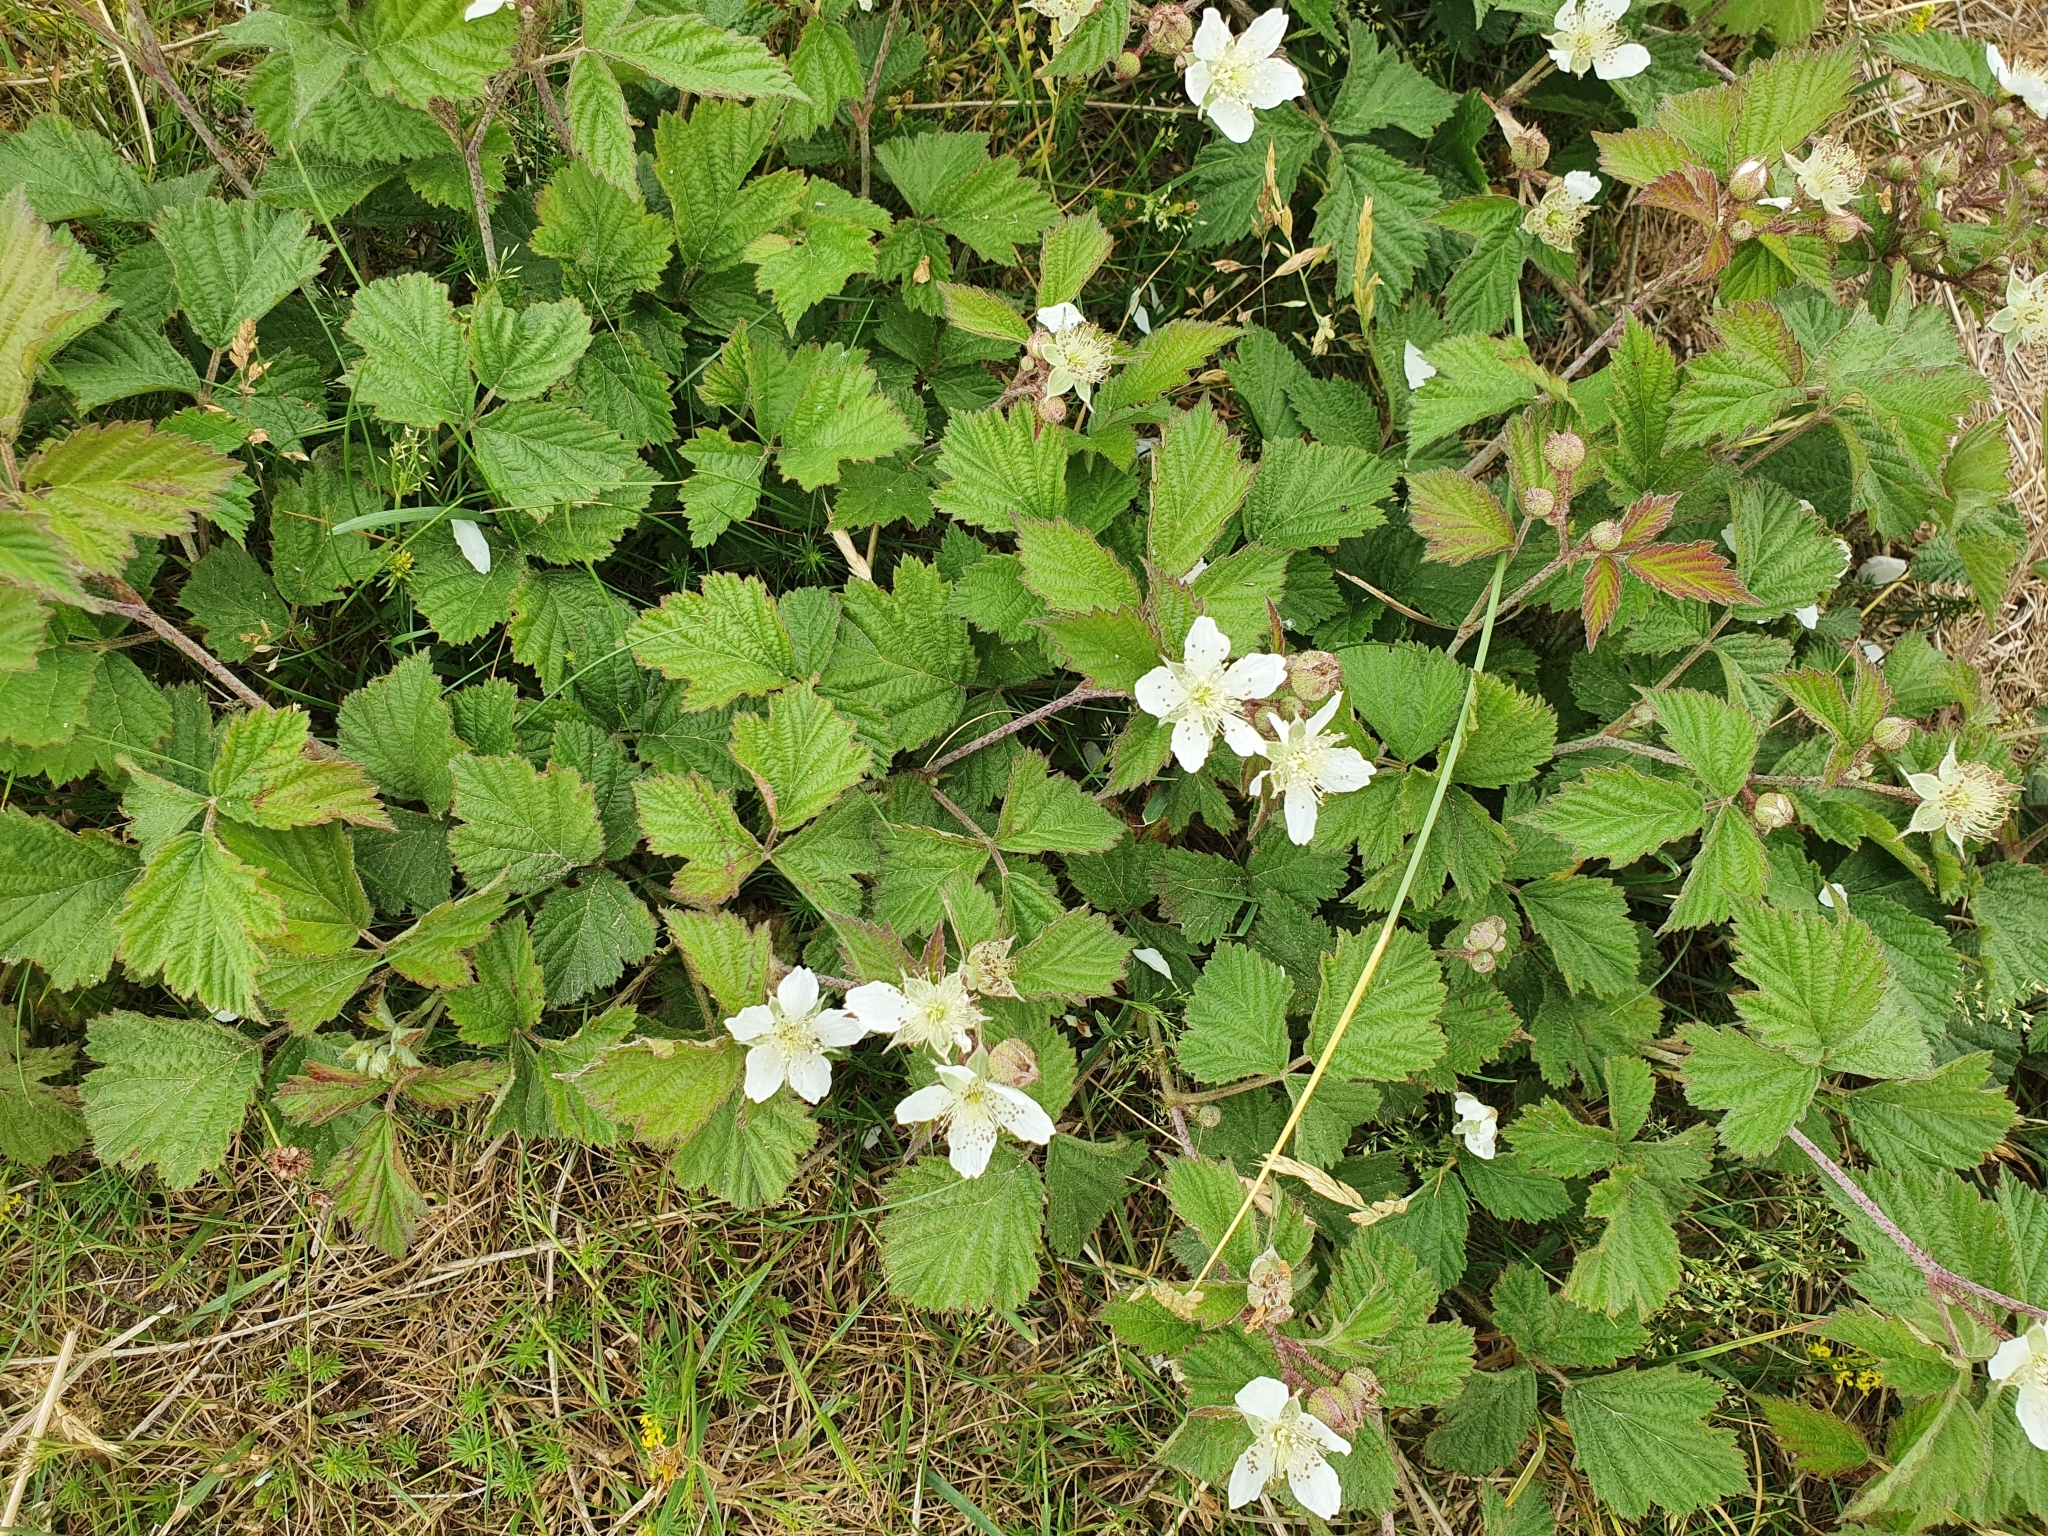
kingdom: Plantae
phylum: Tracheophyta
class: Magnoliopsida
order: Rosales
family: Rosaceae
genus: Rubus
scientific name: Rubus caesius
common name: Dewberry
